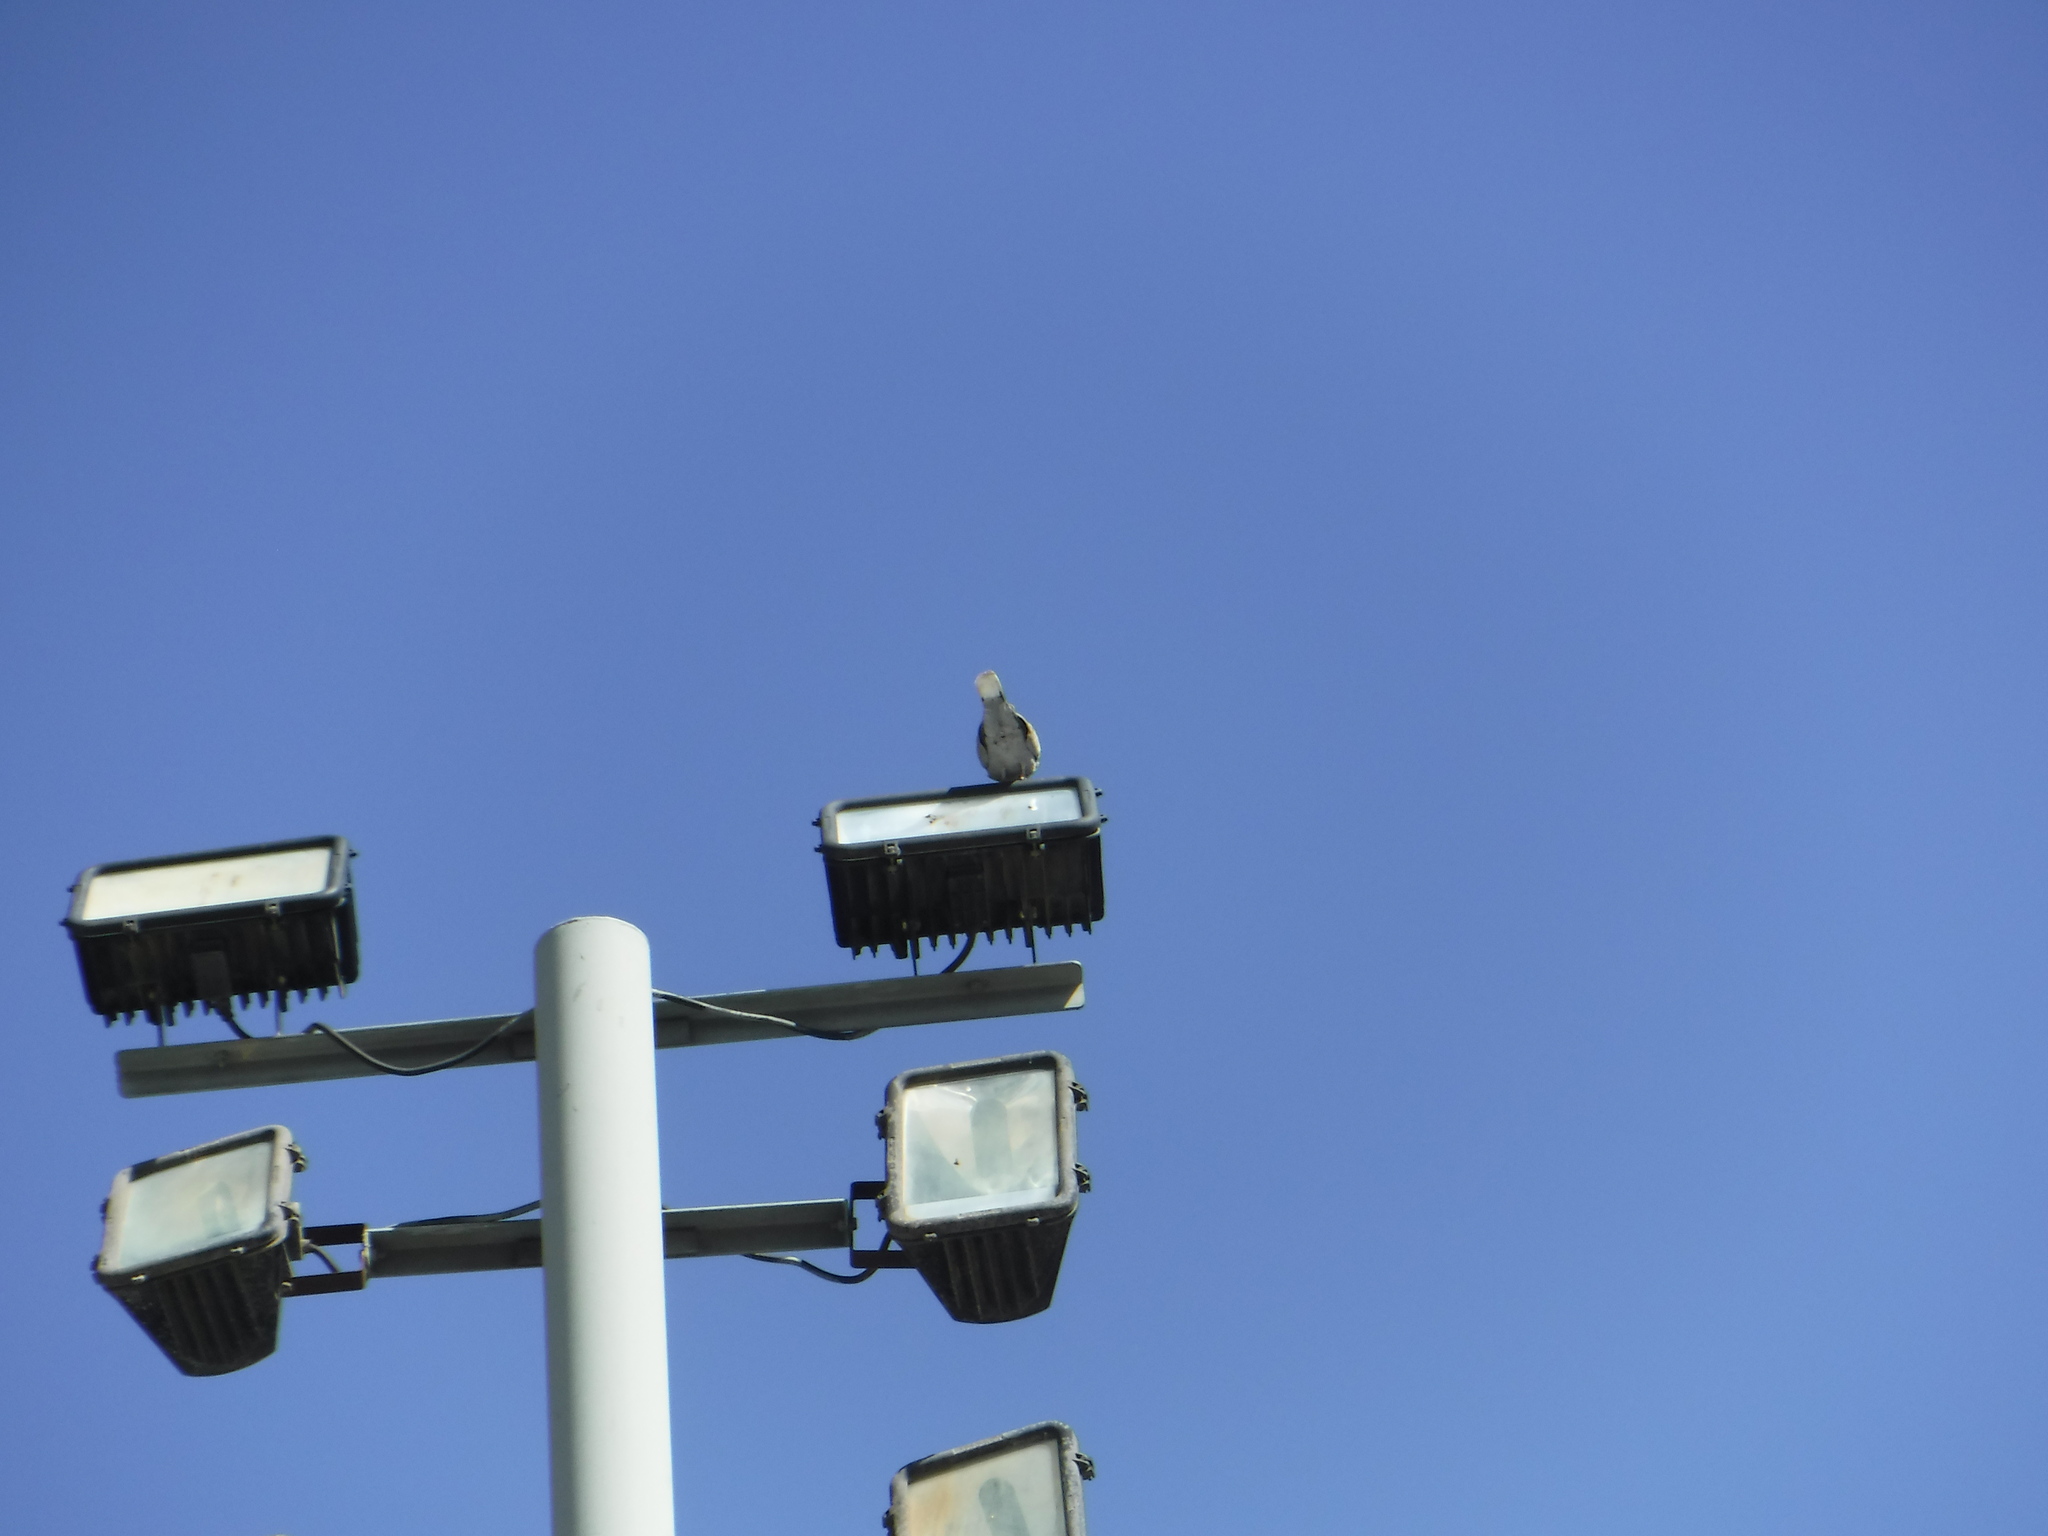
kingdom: Animalia
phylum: Chordata
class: Aves
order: Columbiformes
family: Columbidae
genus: Streptopelia
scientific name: Streptopelia decaocto
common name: Eurasian collared dove
